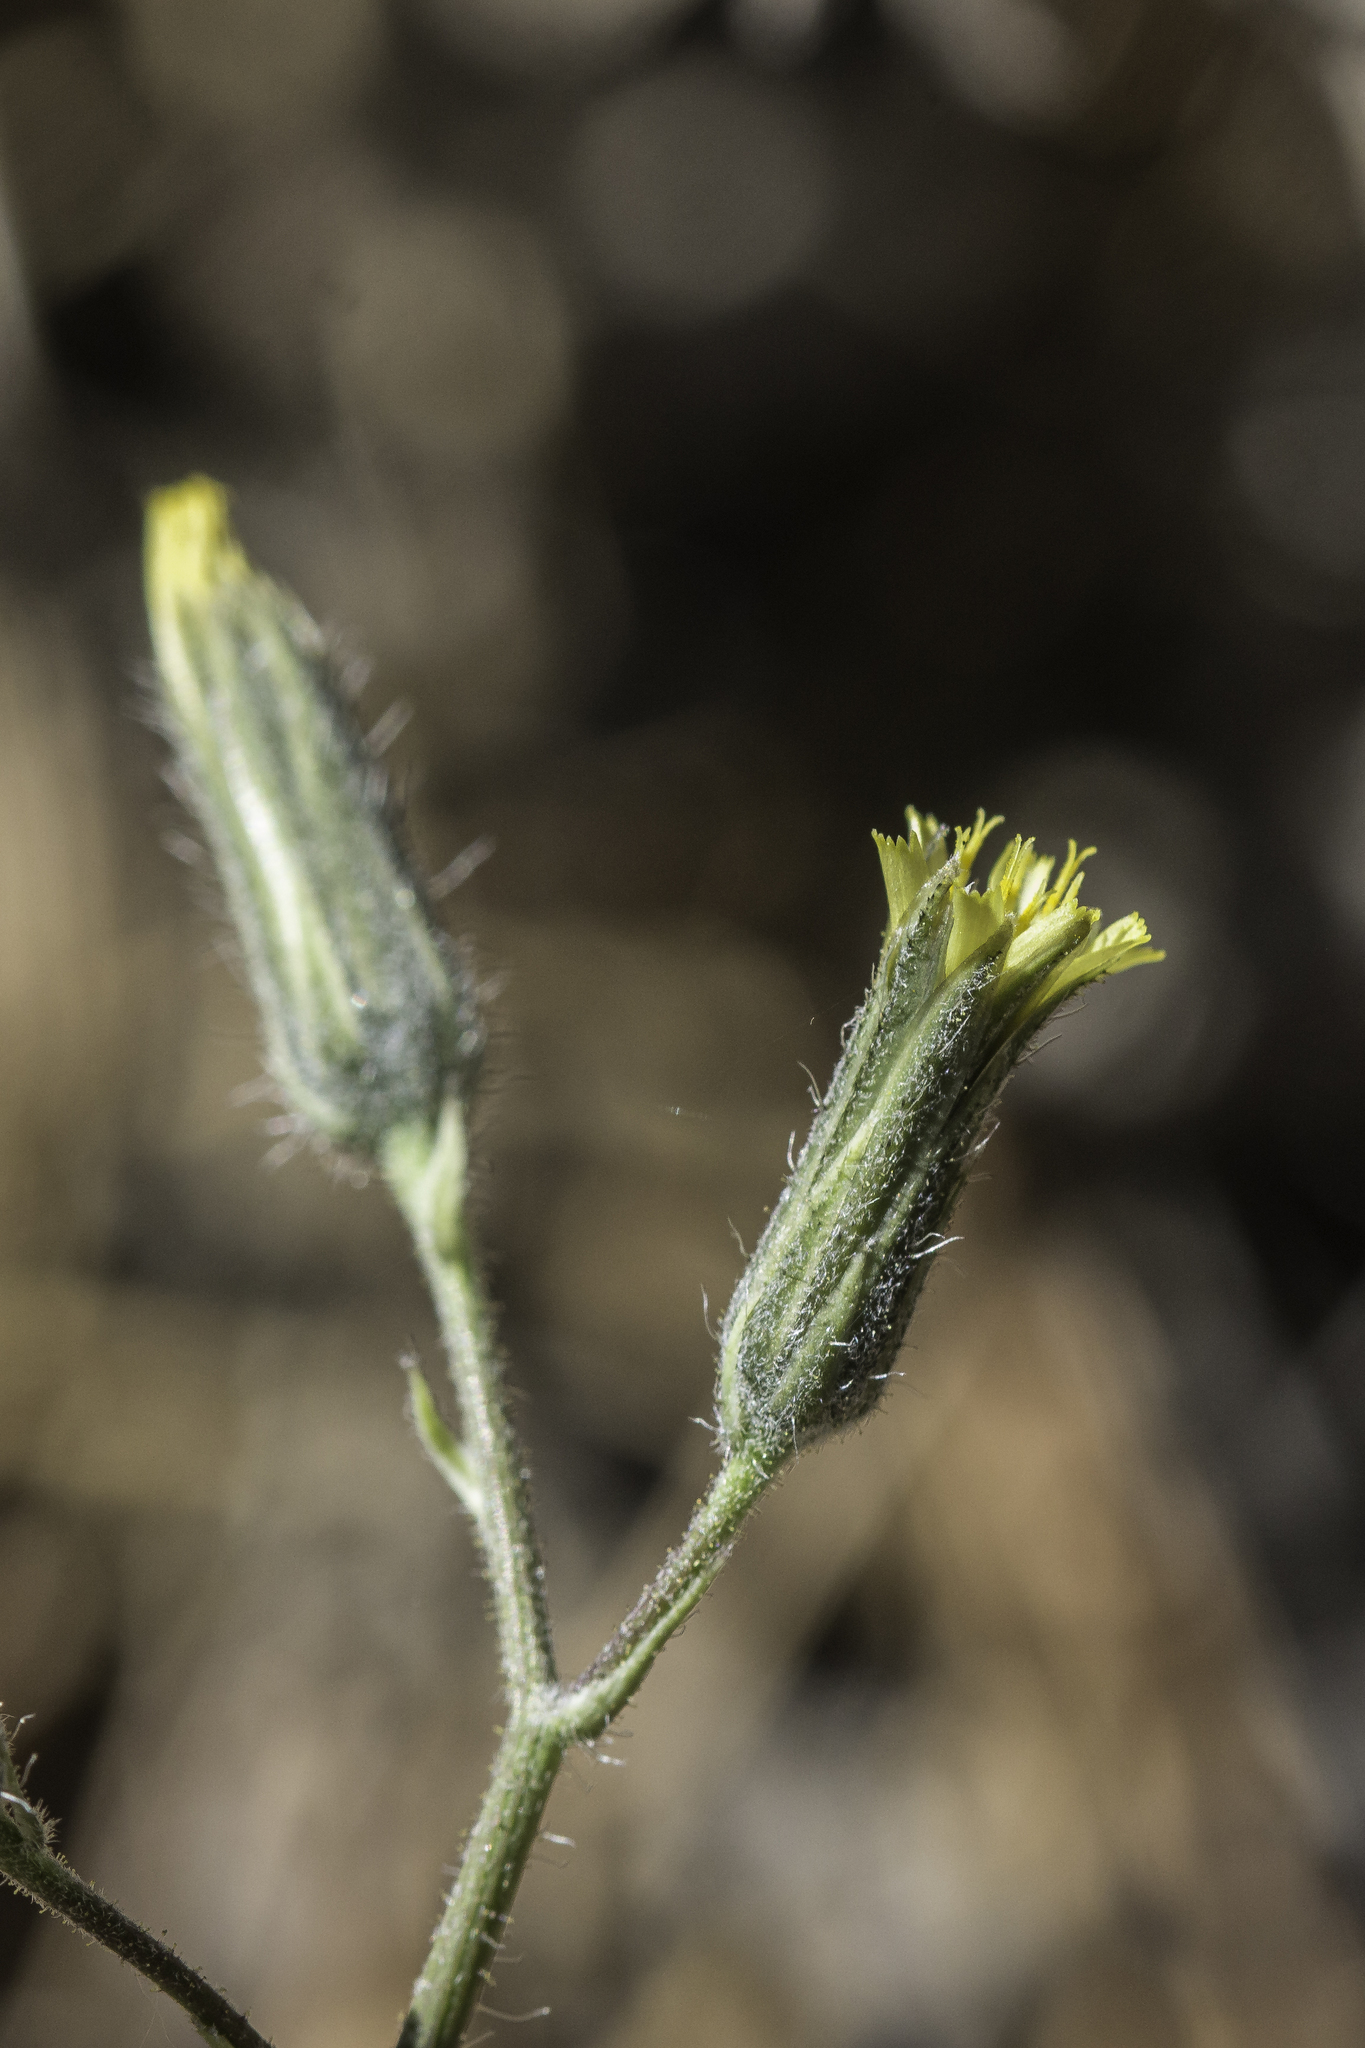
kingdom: Plantae
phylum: Tracheophyta
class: Magnoliopsida
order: Asterales
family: Asteraceae
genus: Hieracium
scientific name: Hieracium fendleri
